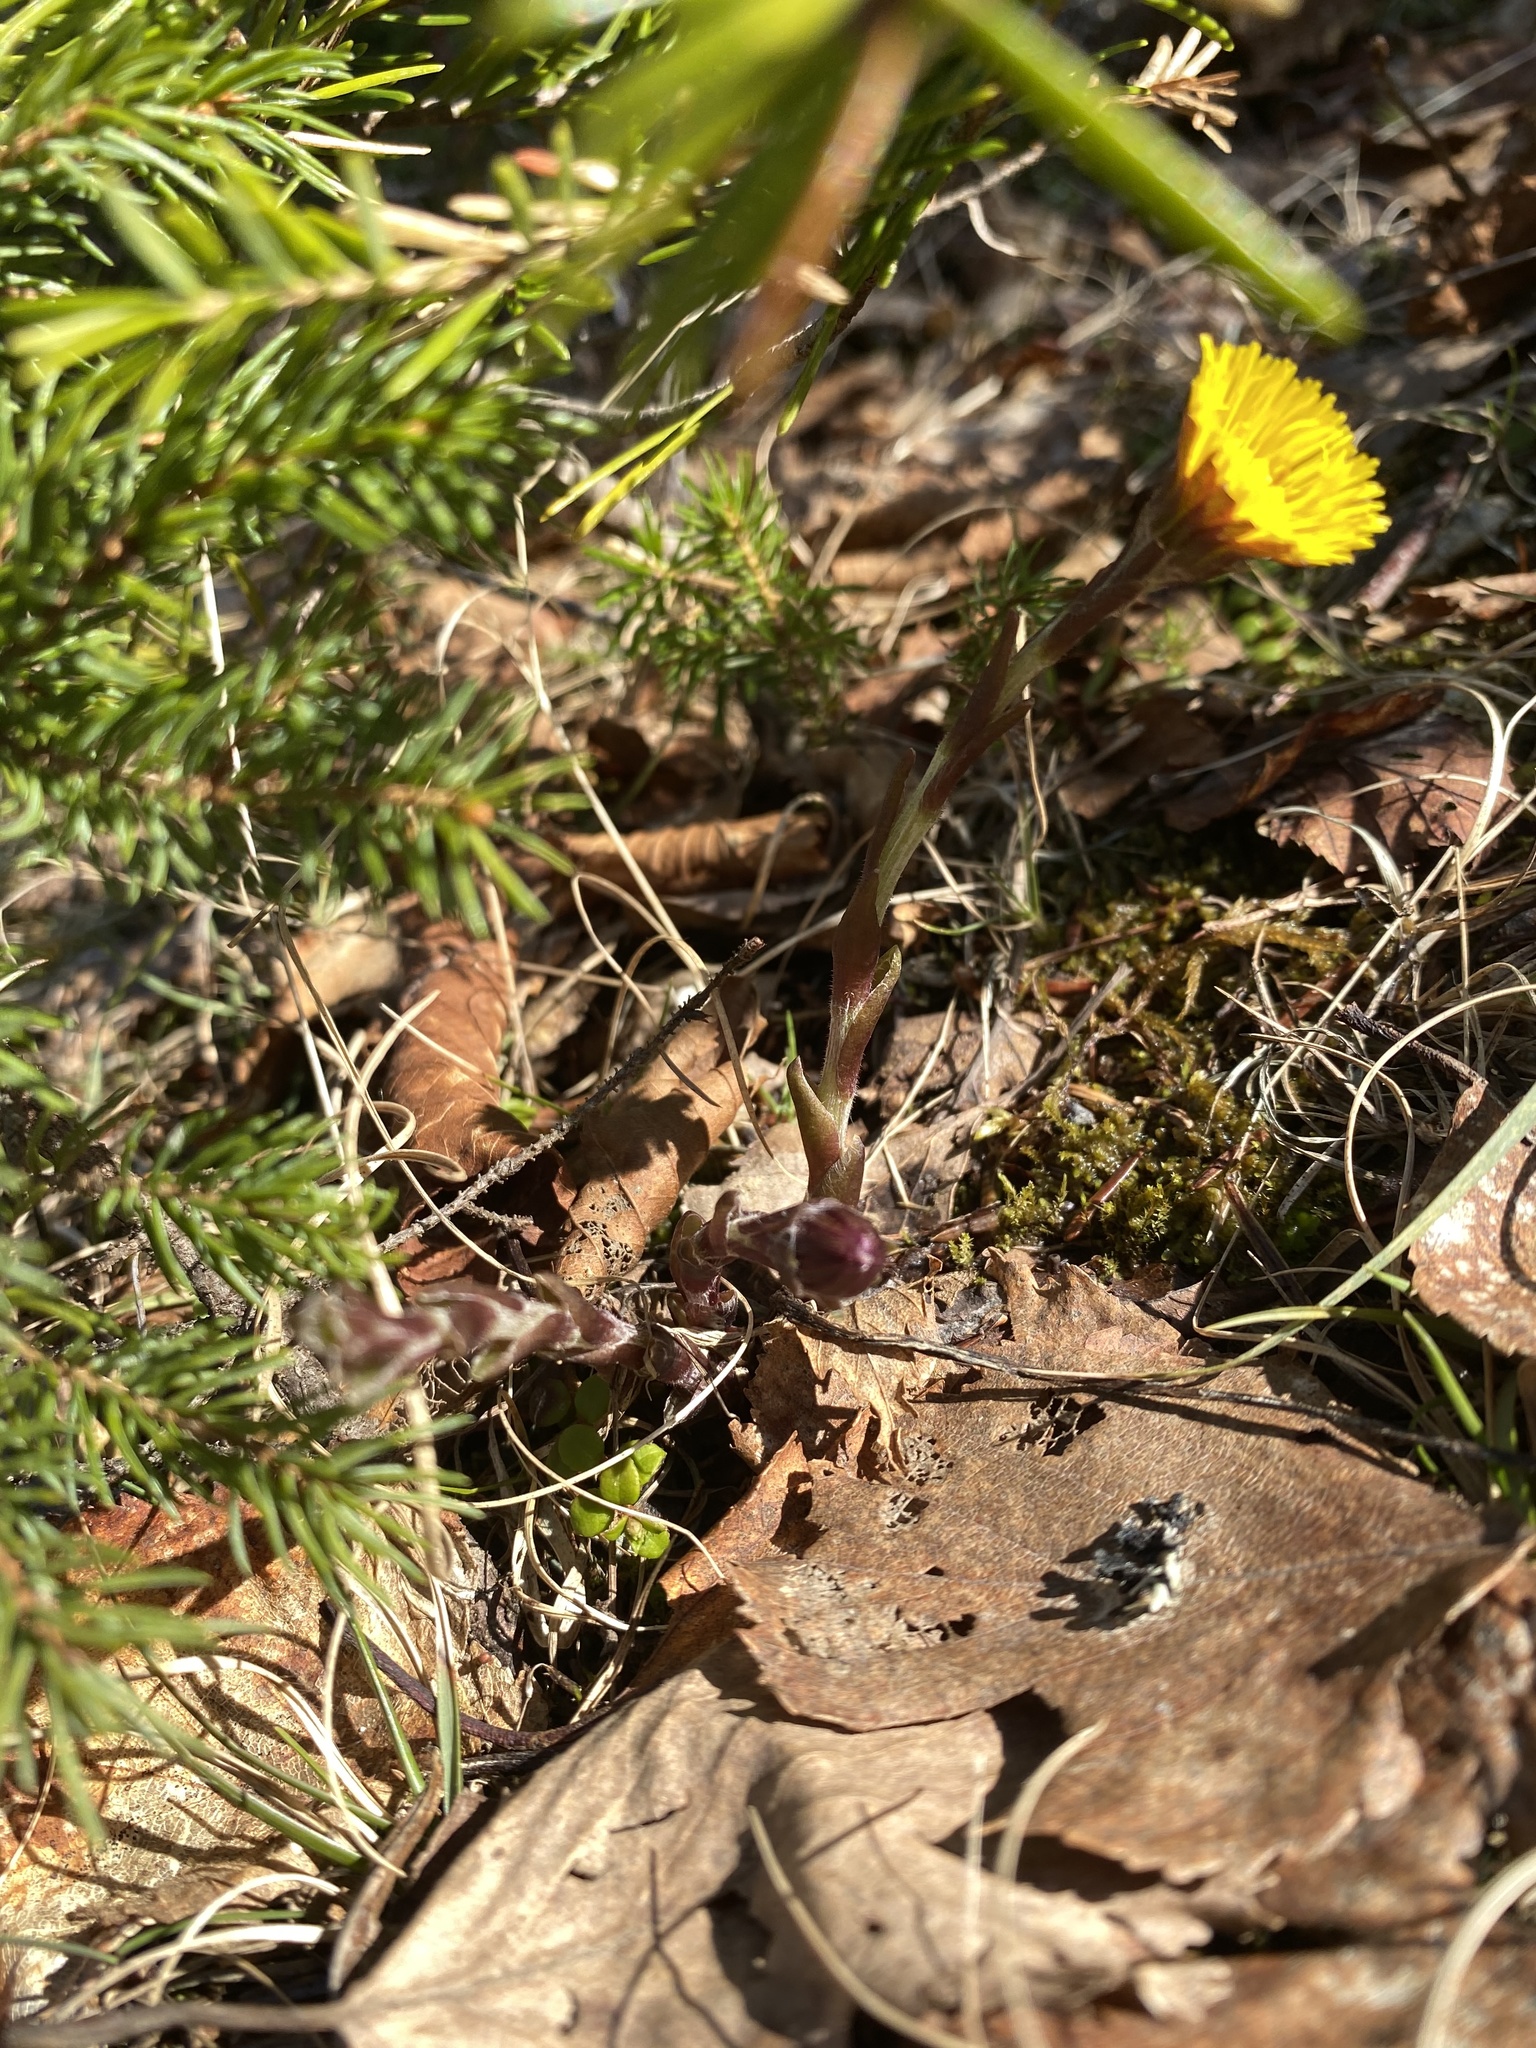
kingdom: Plantae
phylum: Tracheophyta
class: Magnoliopsida
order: Asterales
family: Asteraceae
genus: Tussilago
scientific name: Tussilago farfara
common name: Coltsfoot
